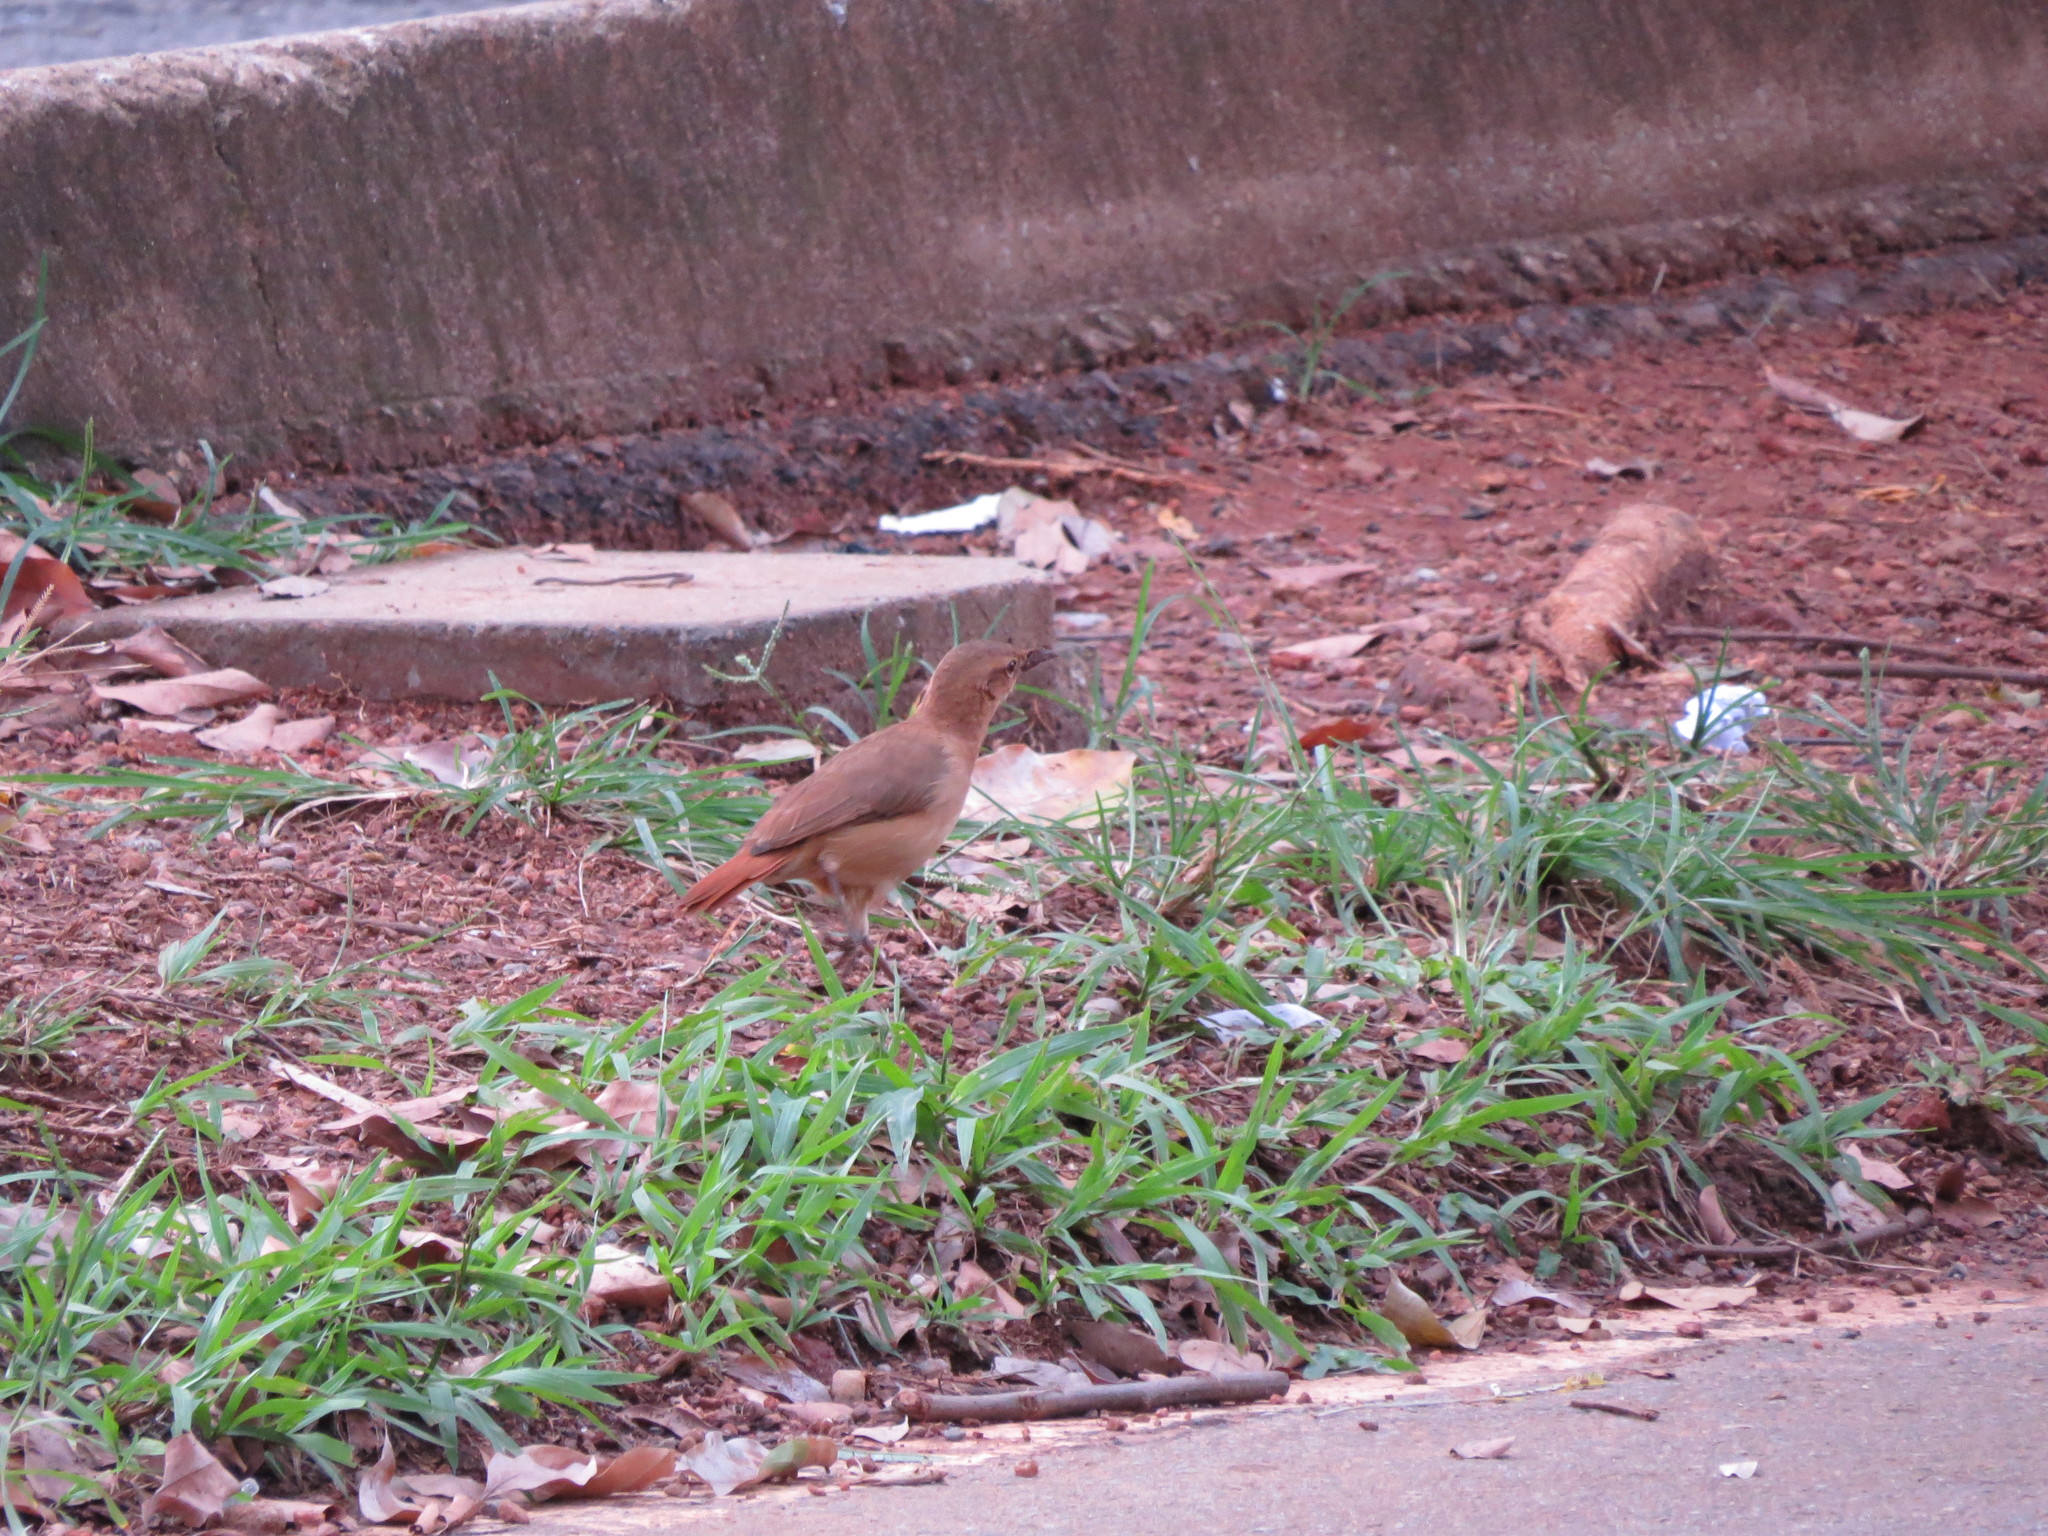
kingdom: Animalia
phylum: Chordata
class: Aves
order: Passeriformes
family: Furnariidae
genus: Furnarius
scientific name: Furnarius rufus
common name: Rufous hornero
